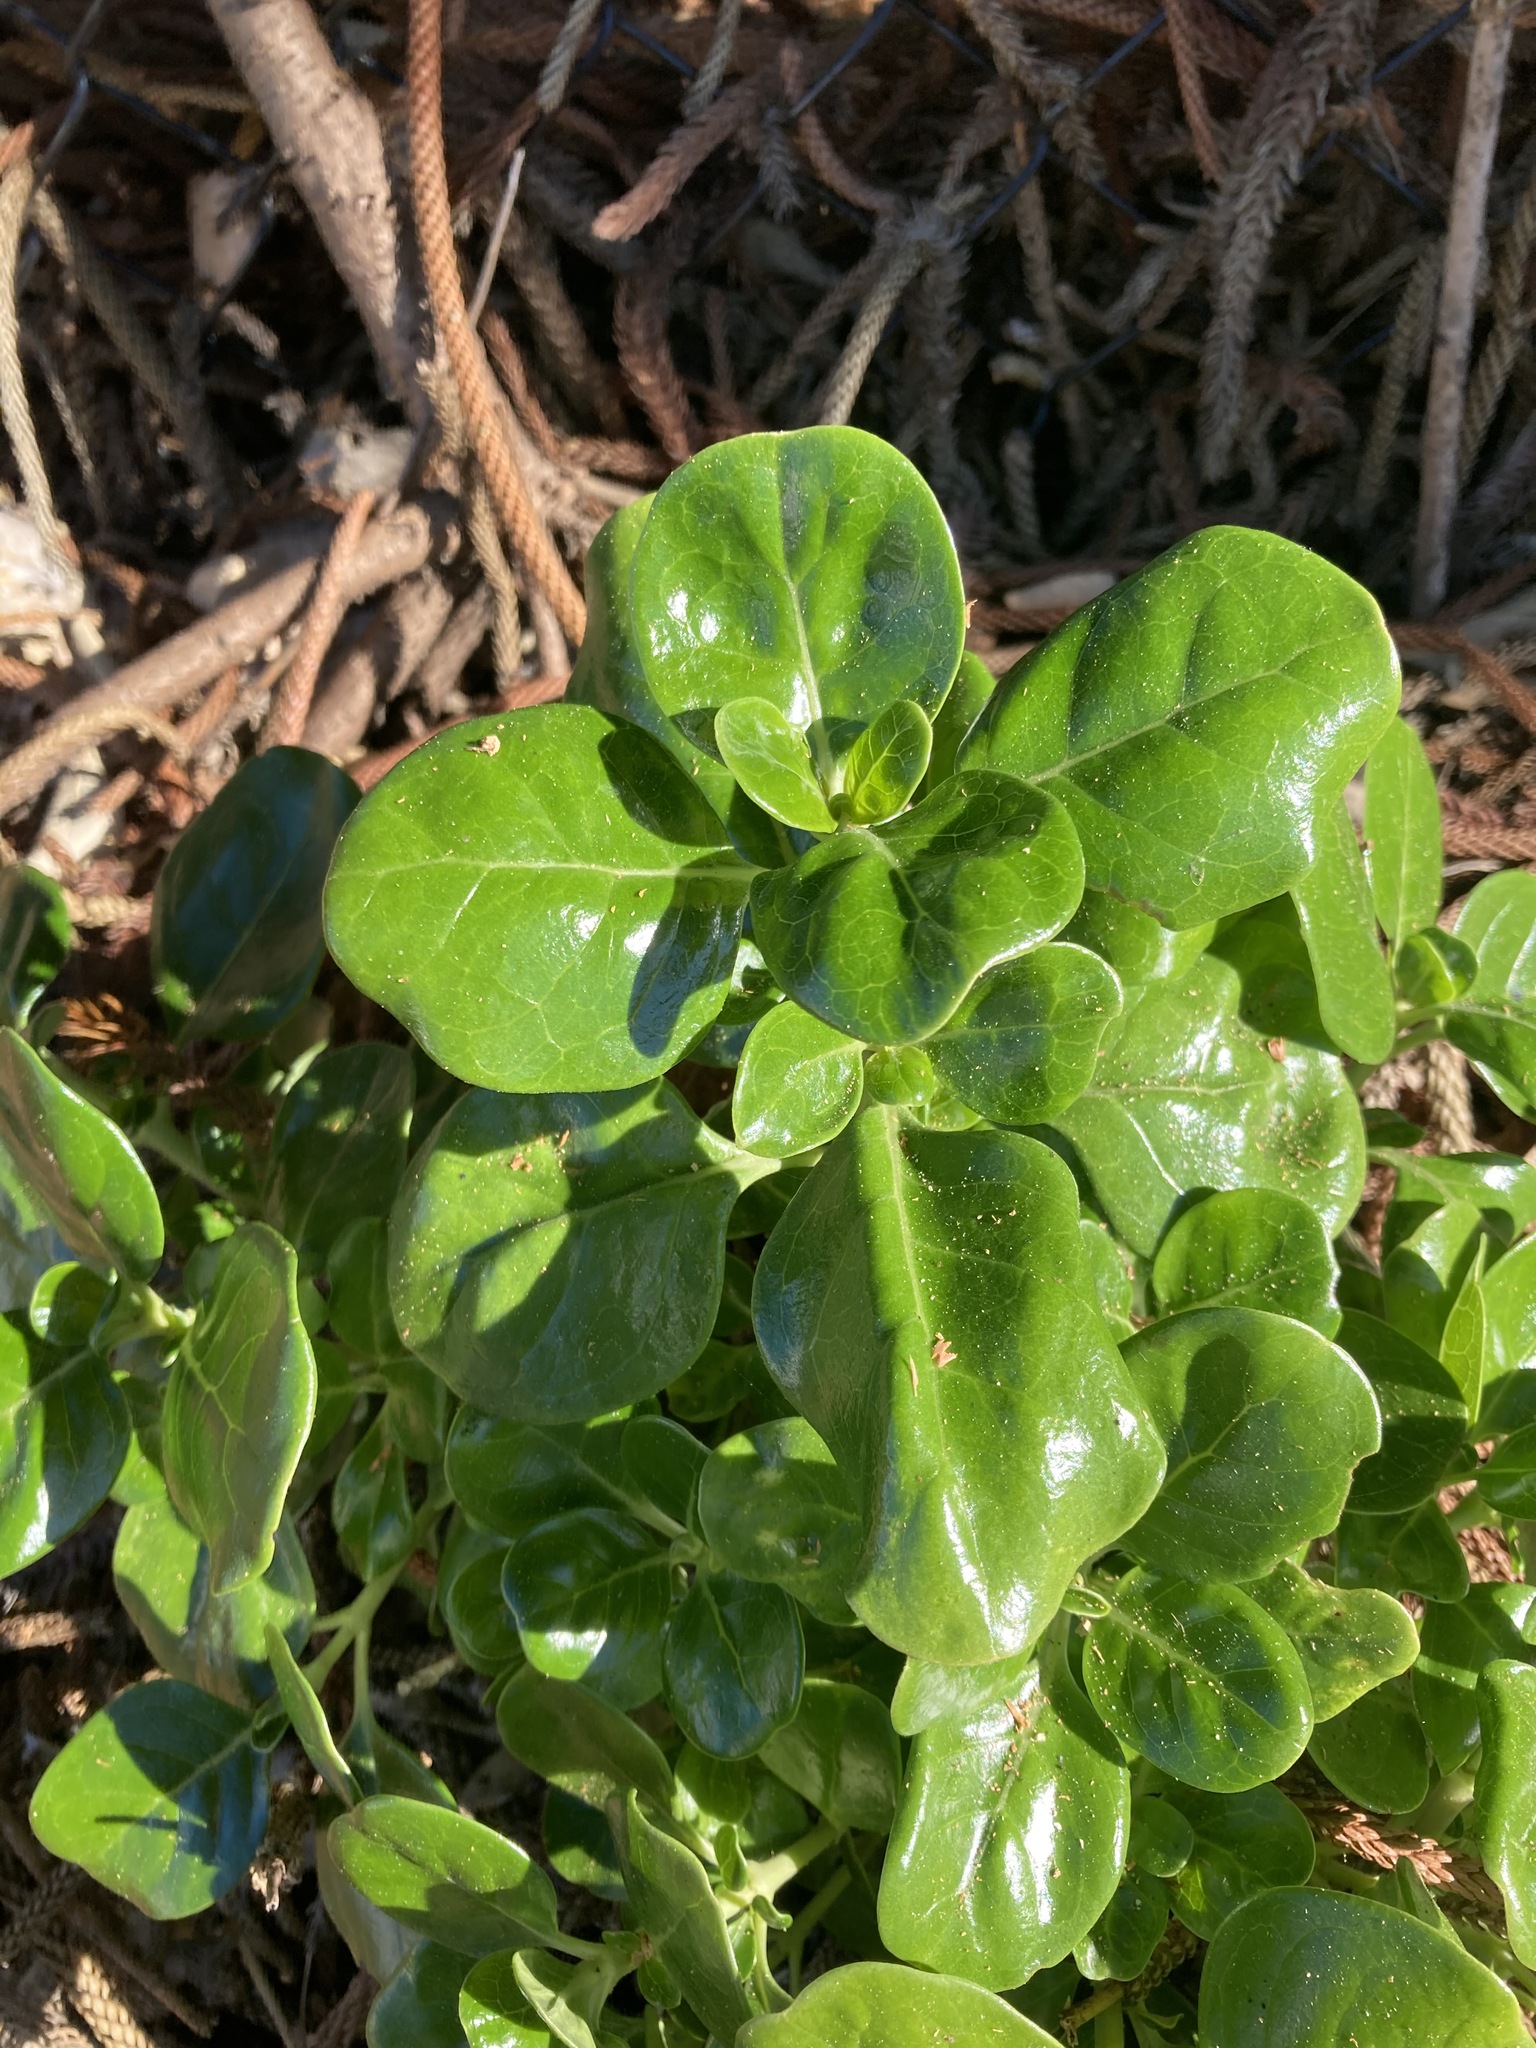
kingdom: Plantae
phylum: Tracheophyta
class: Magnoliopsida
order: Gentianales
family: Rubiaceae
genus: Coprosma
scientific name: Coprosma repens
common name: Tree bedstraw
